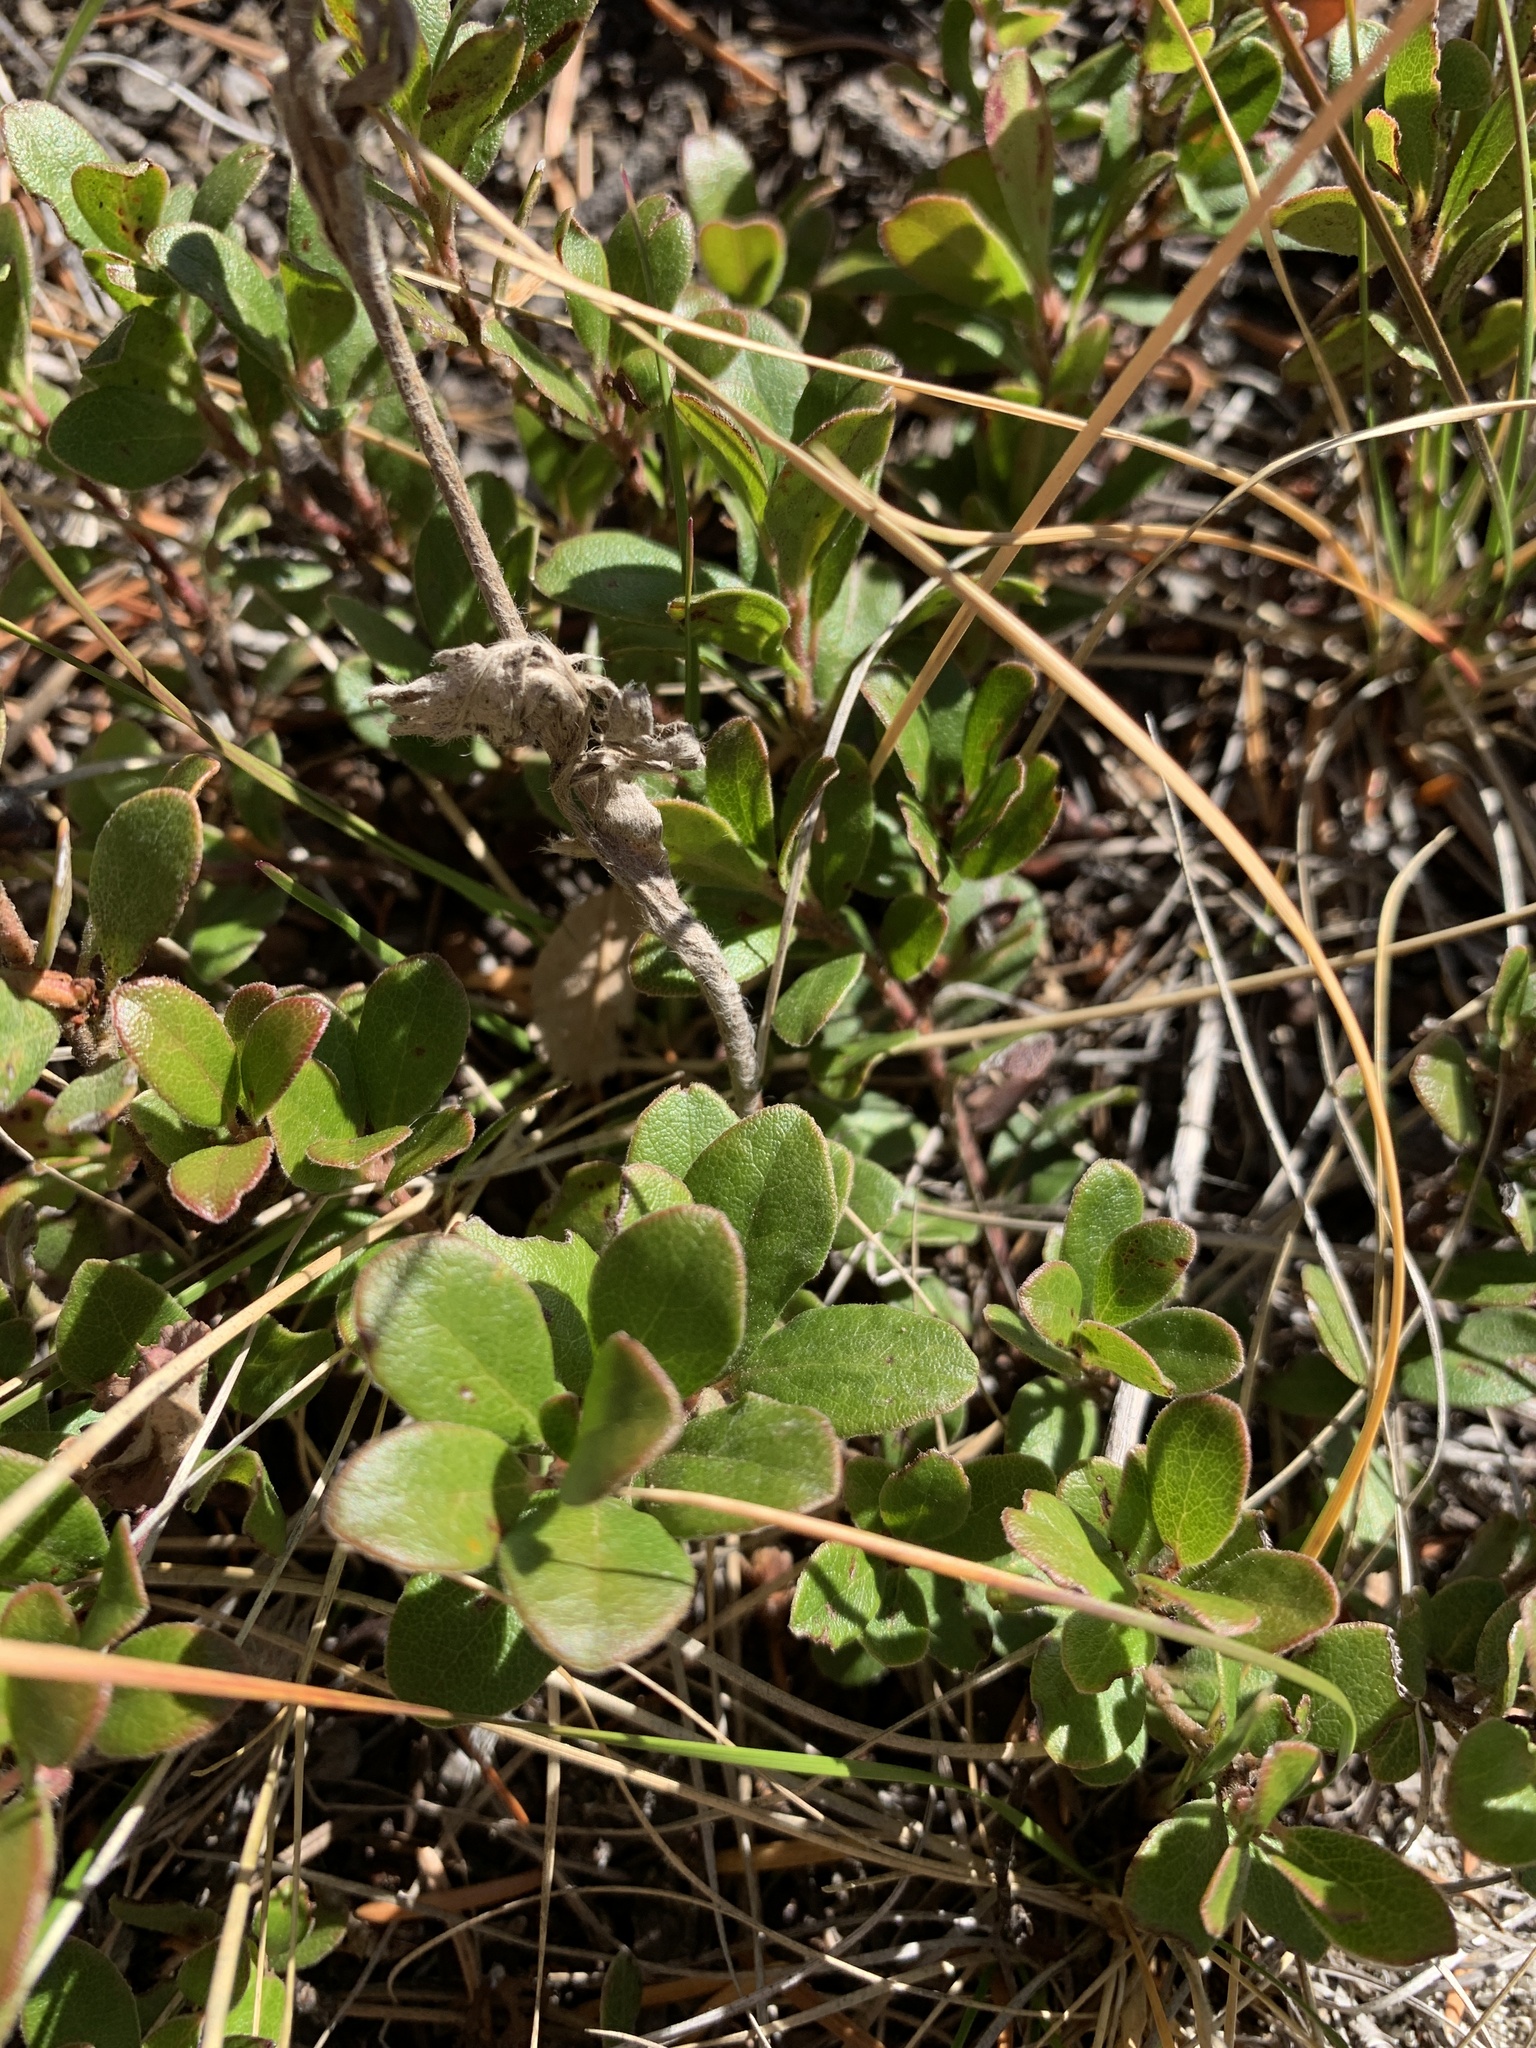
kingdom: Plantae
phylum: Tracheophyta
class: Magnoliopsida
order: Ericales
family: Ericaceae
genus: Arctostaphylos
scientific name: Arctostaphylos uva-ursi
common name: Bearberry
